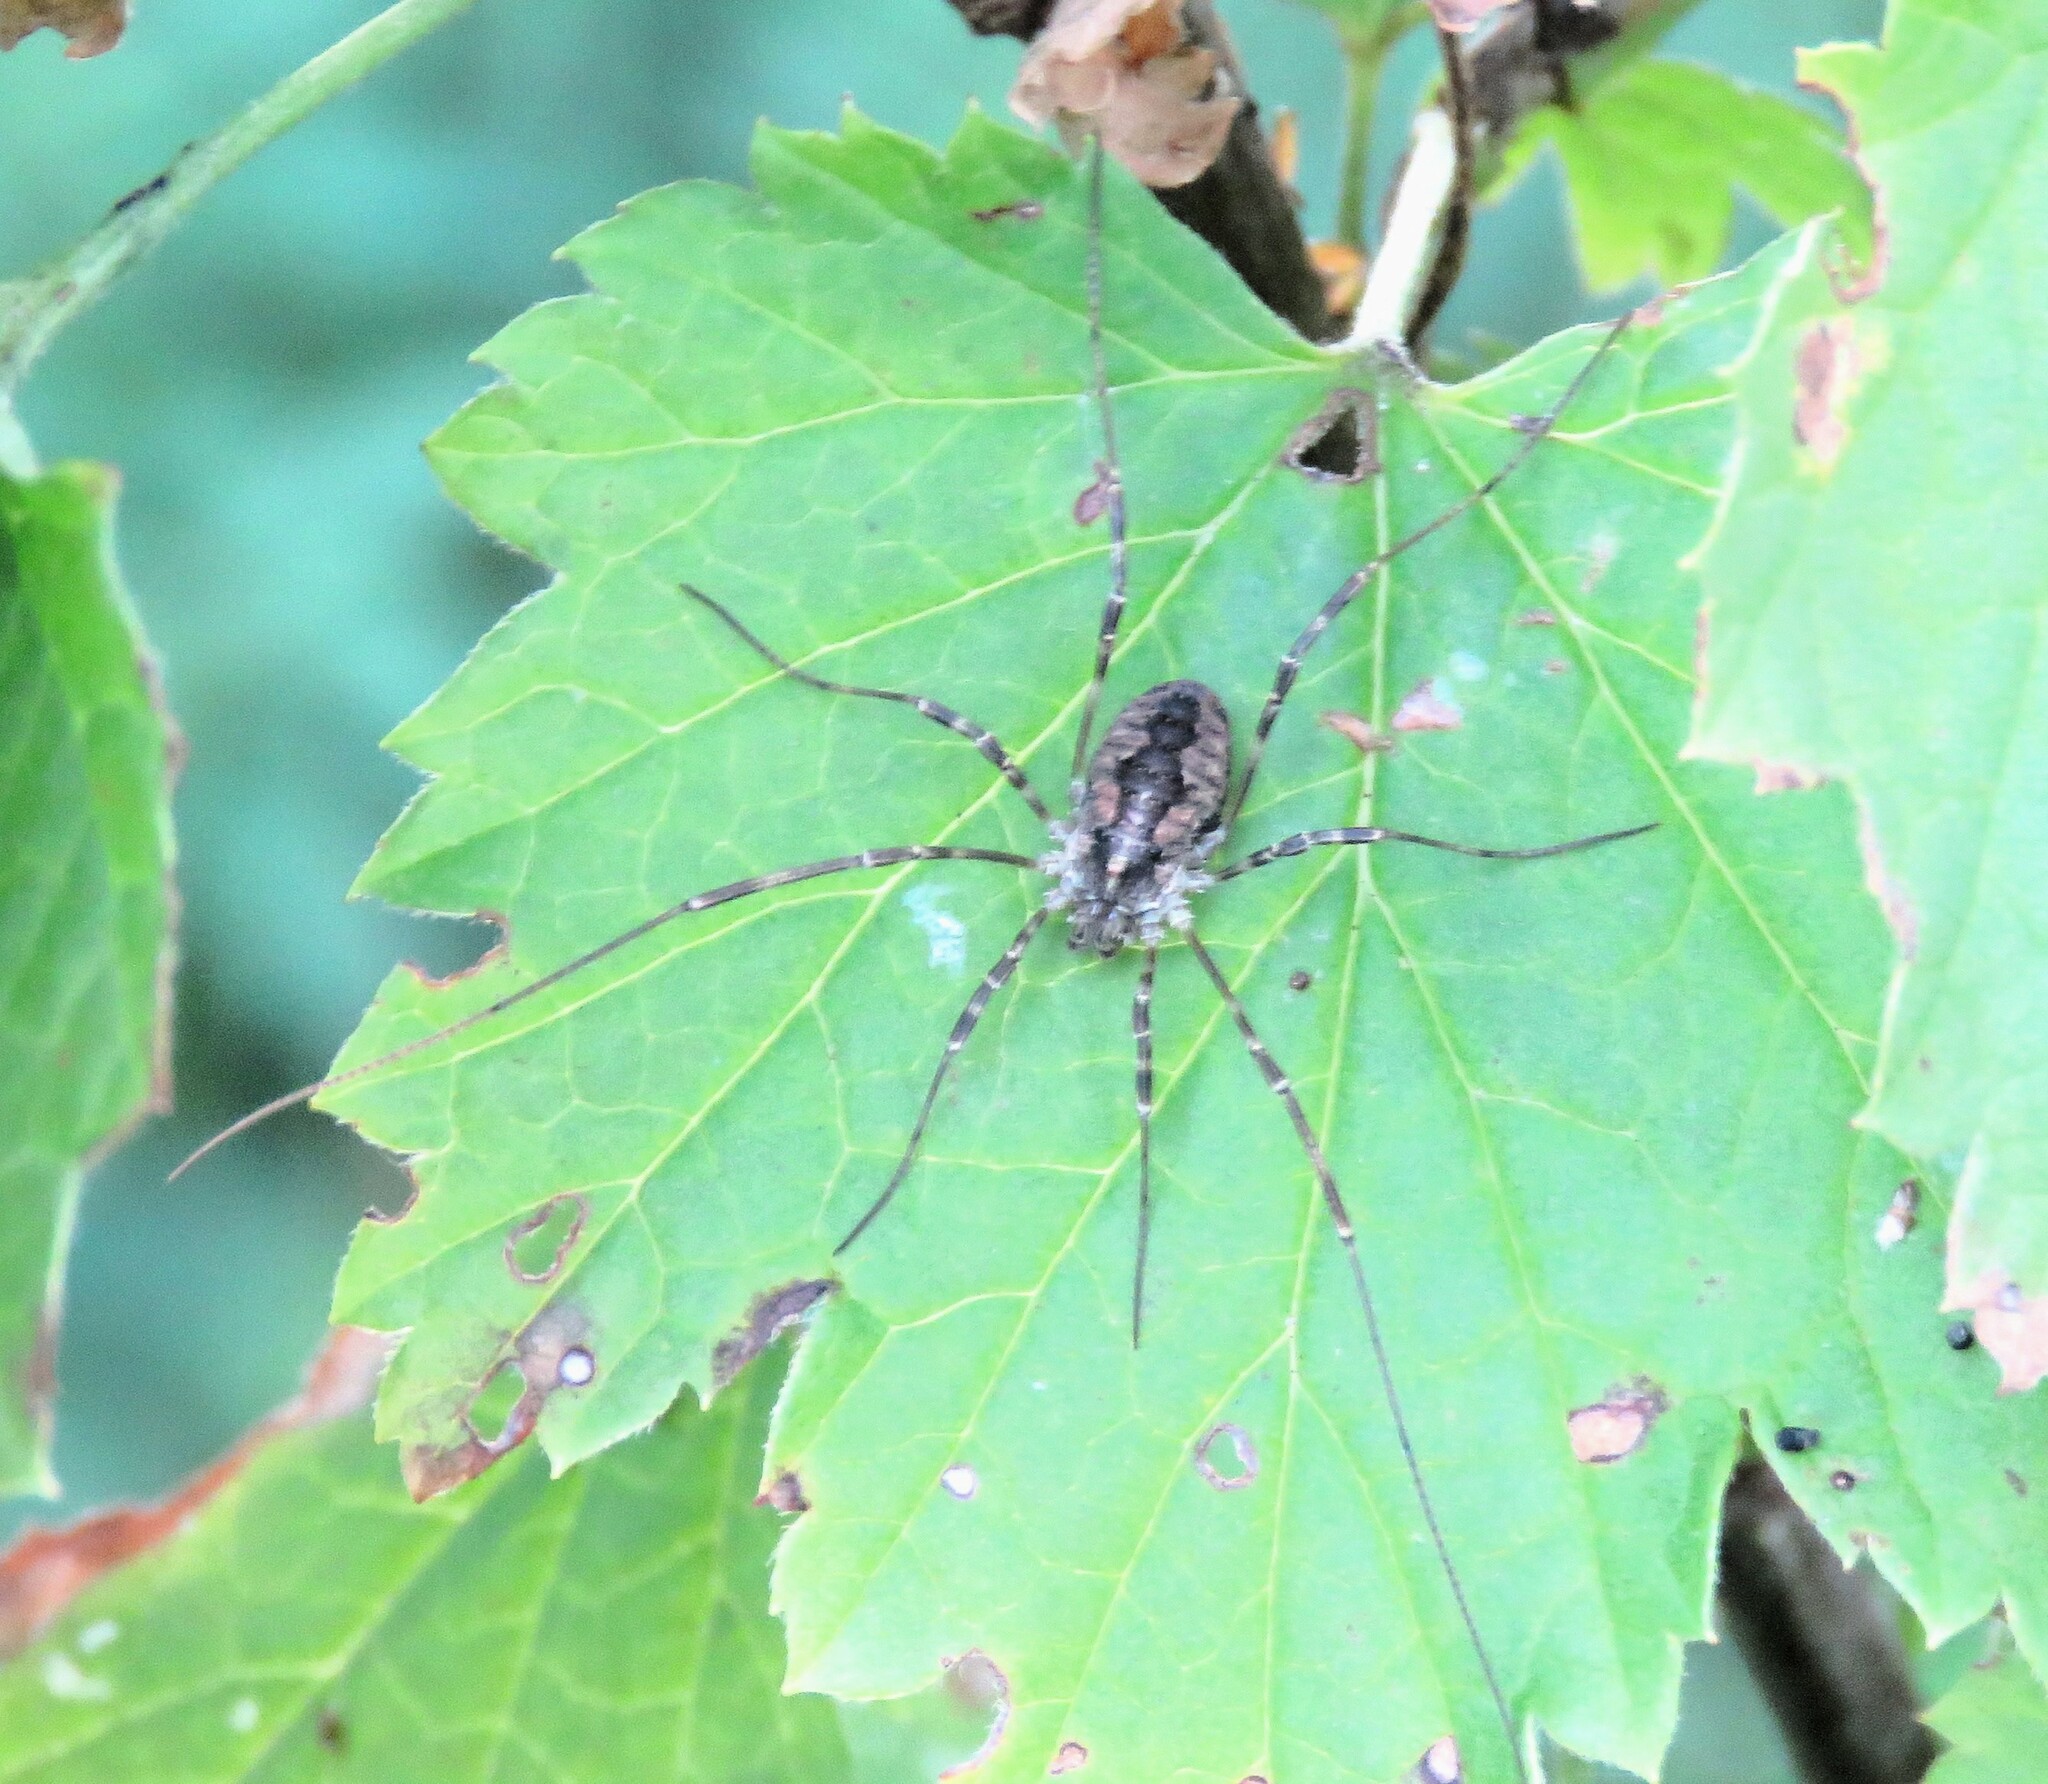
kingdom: Animalia
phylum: Arthropoda
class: Arachnida
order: Opiliones
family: Phalangiidae
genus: Odiellus
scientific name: Odiellus pictus
